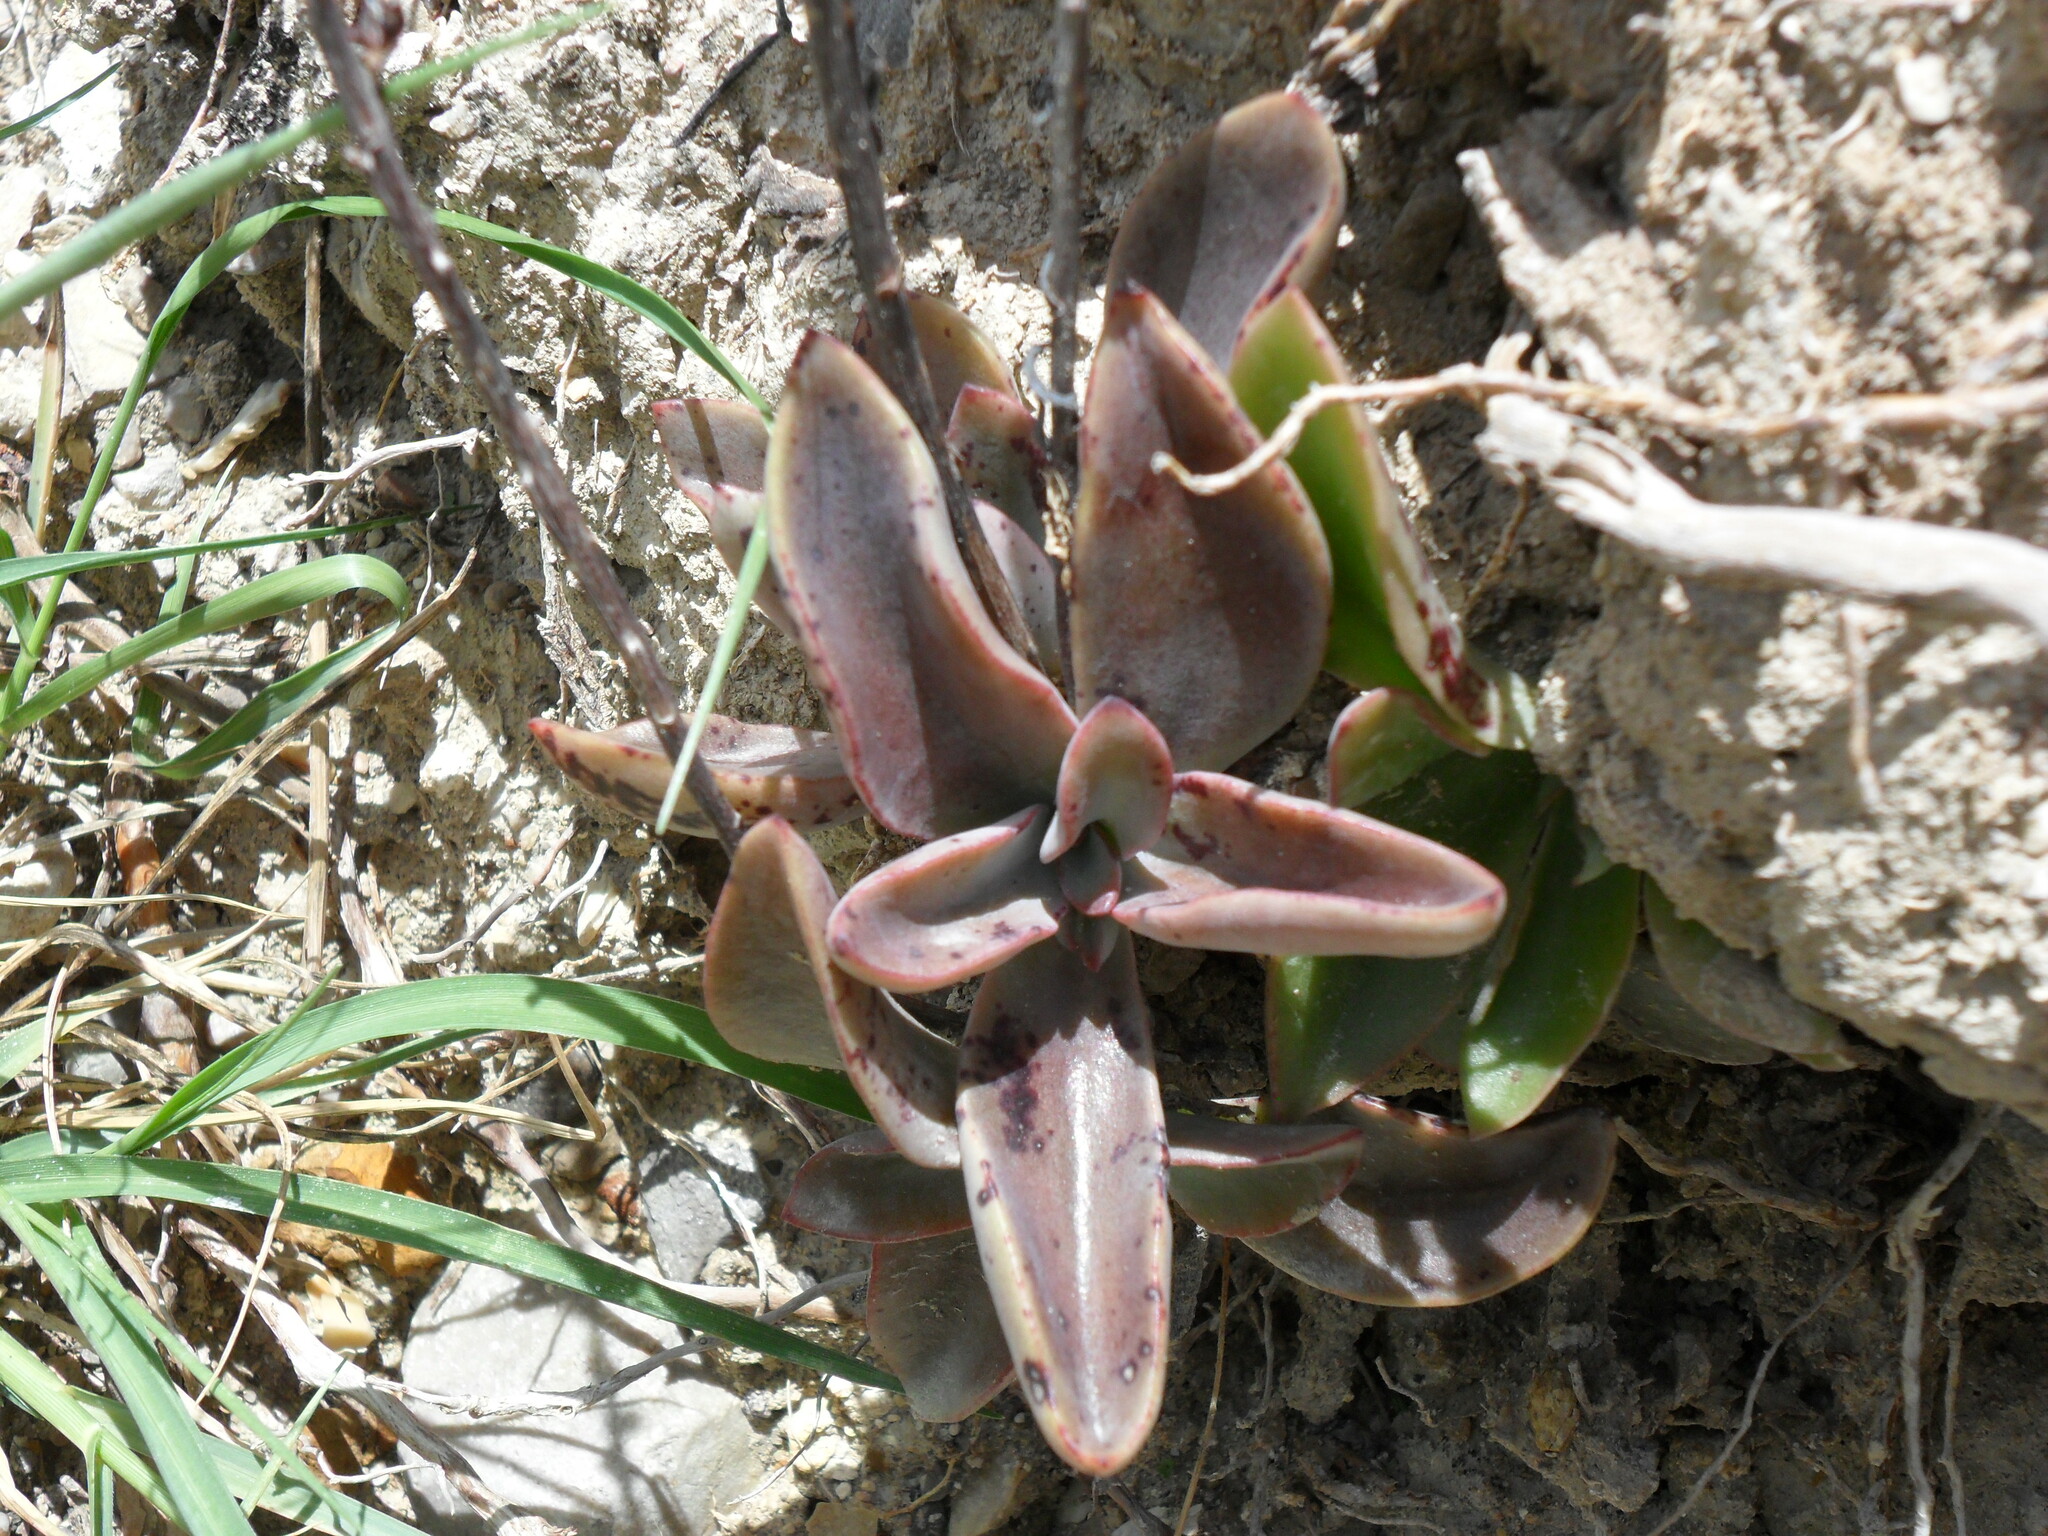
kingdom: Plantae
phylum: Tracheophyta
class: Magnoliopsida
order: Saxifragales
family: Crassulaceae
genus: Thompsonella
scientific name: Thompsonella minutiflora
